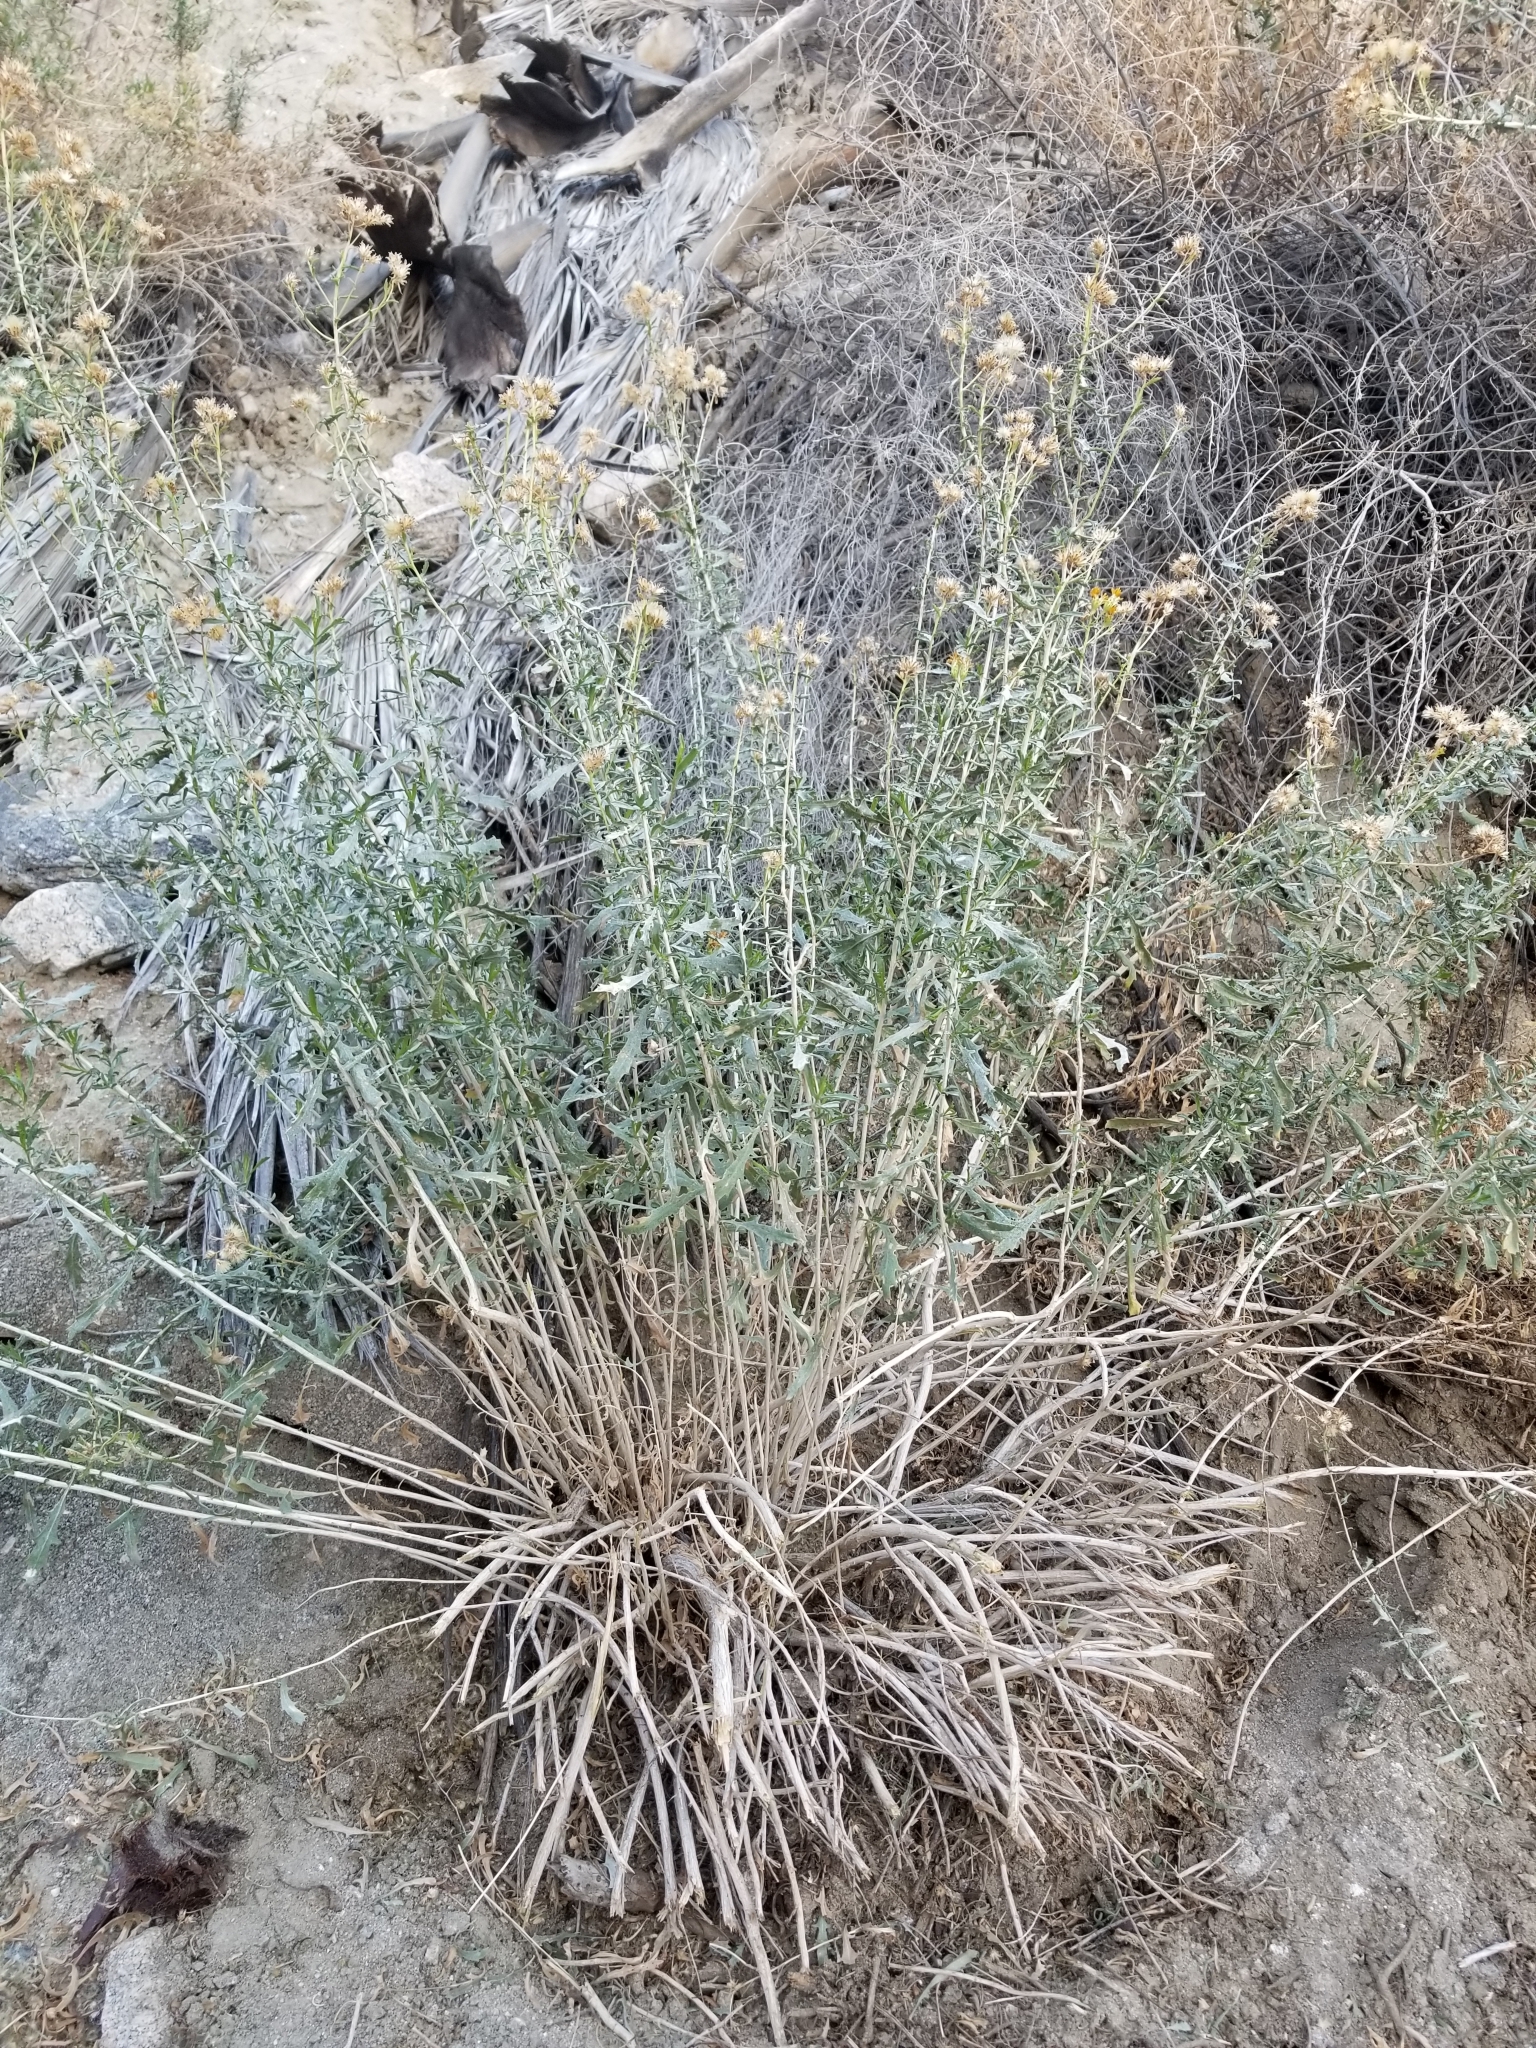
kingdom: Plantae
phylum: Tracheophyta
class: Magnoliopsida
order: Asterales
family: Asteraceae
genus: Isocoma
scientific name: Isocoma acradenia
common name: Alkali jimmyweed
